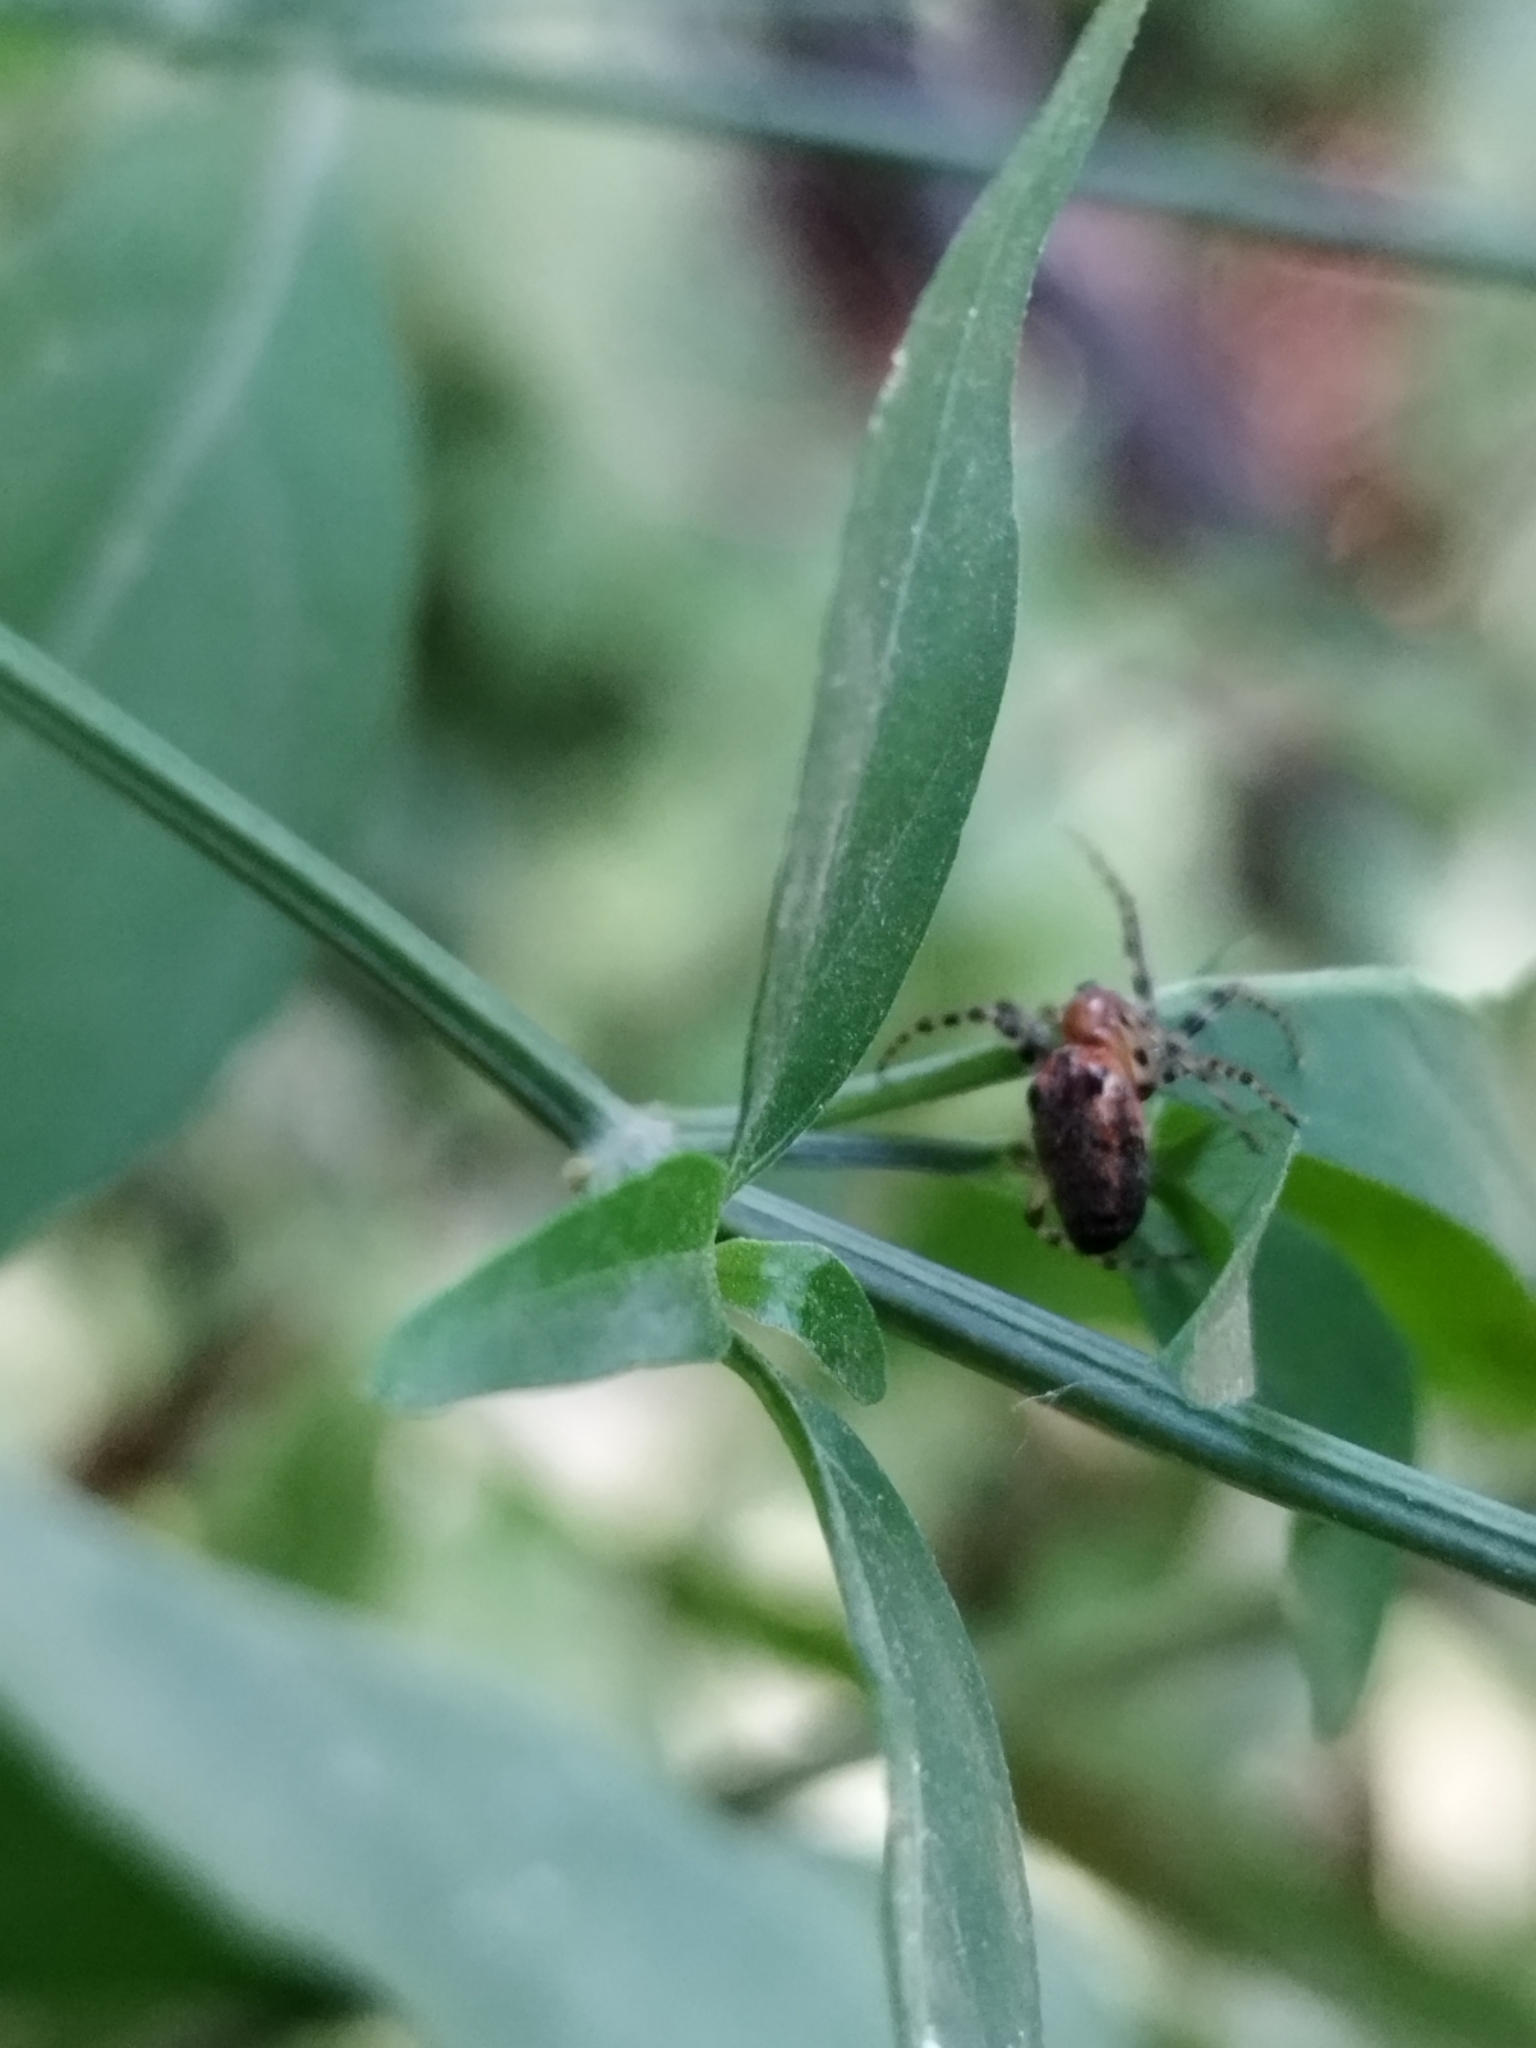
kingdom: Animalia
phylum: Arthropoda
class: Arachnida
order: Araneae
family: Araneidae
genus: Alpaida
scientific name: Alpaida gallardoi
